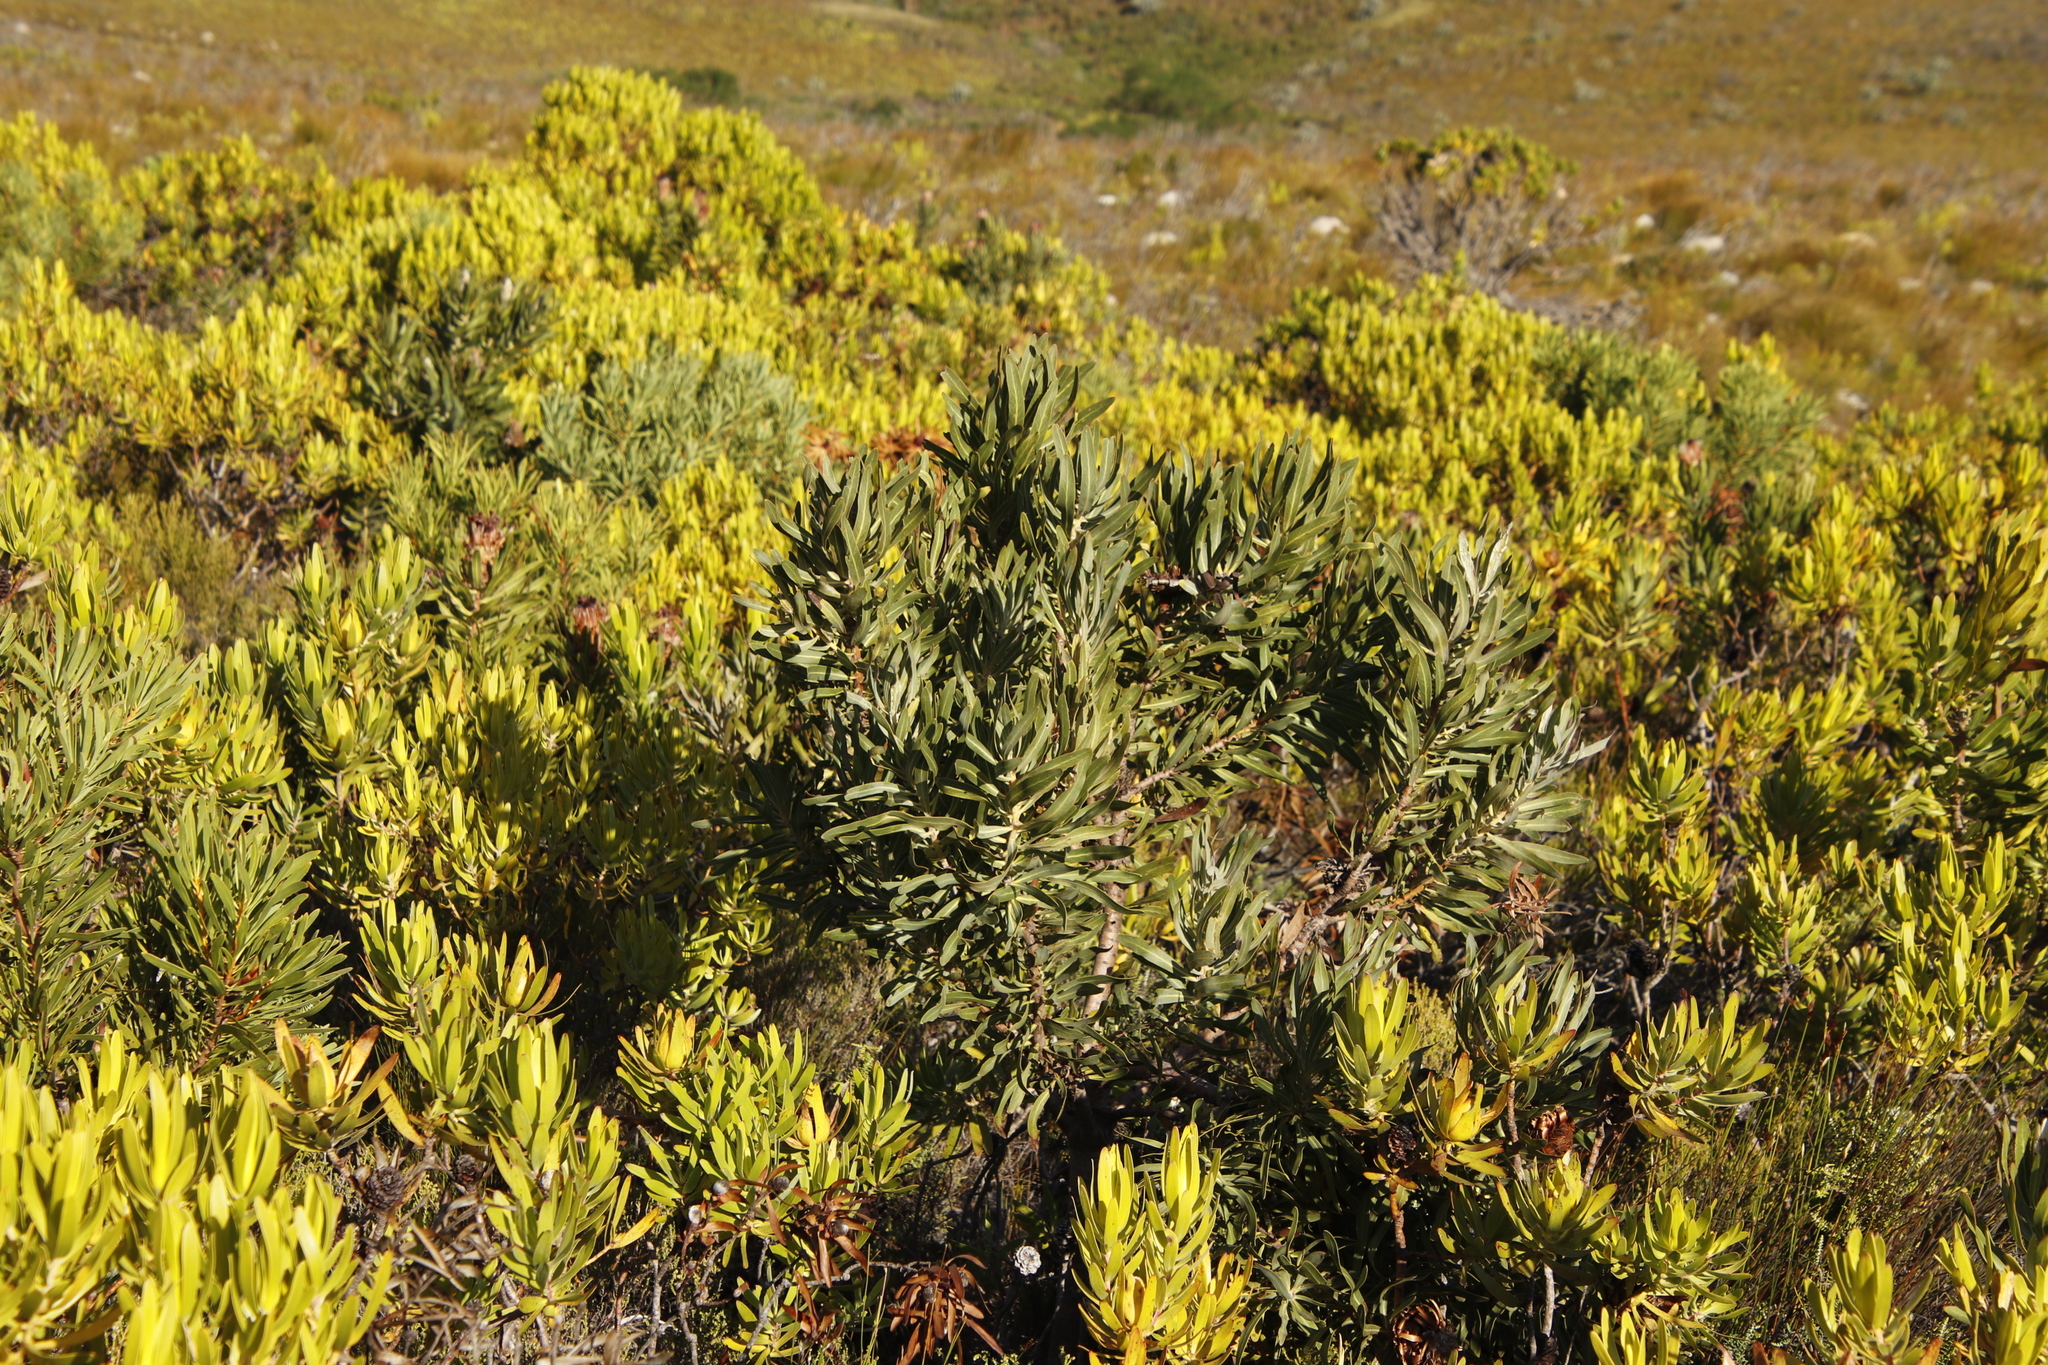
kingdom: Plantae
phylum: Tracheophyta
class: Magnoliopsida
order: Proteales
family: Proteaceae
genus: Protea
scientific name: Protea laurifolia
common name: Grey-leaf sugarbsh
